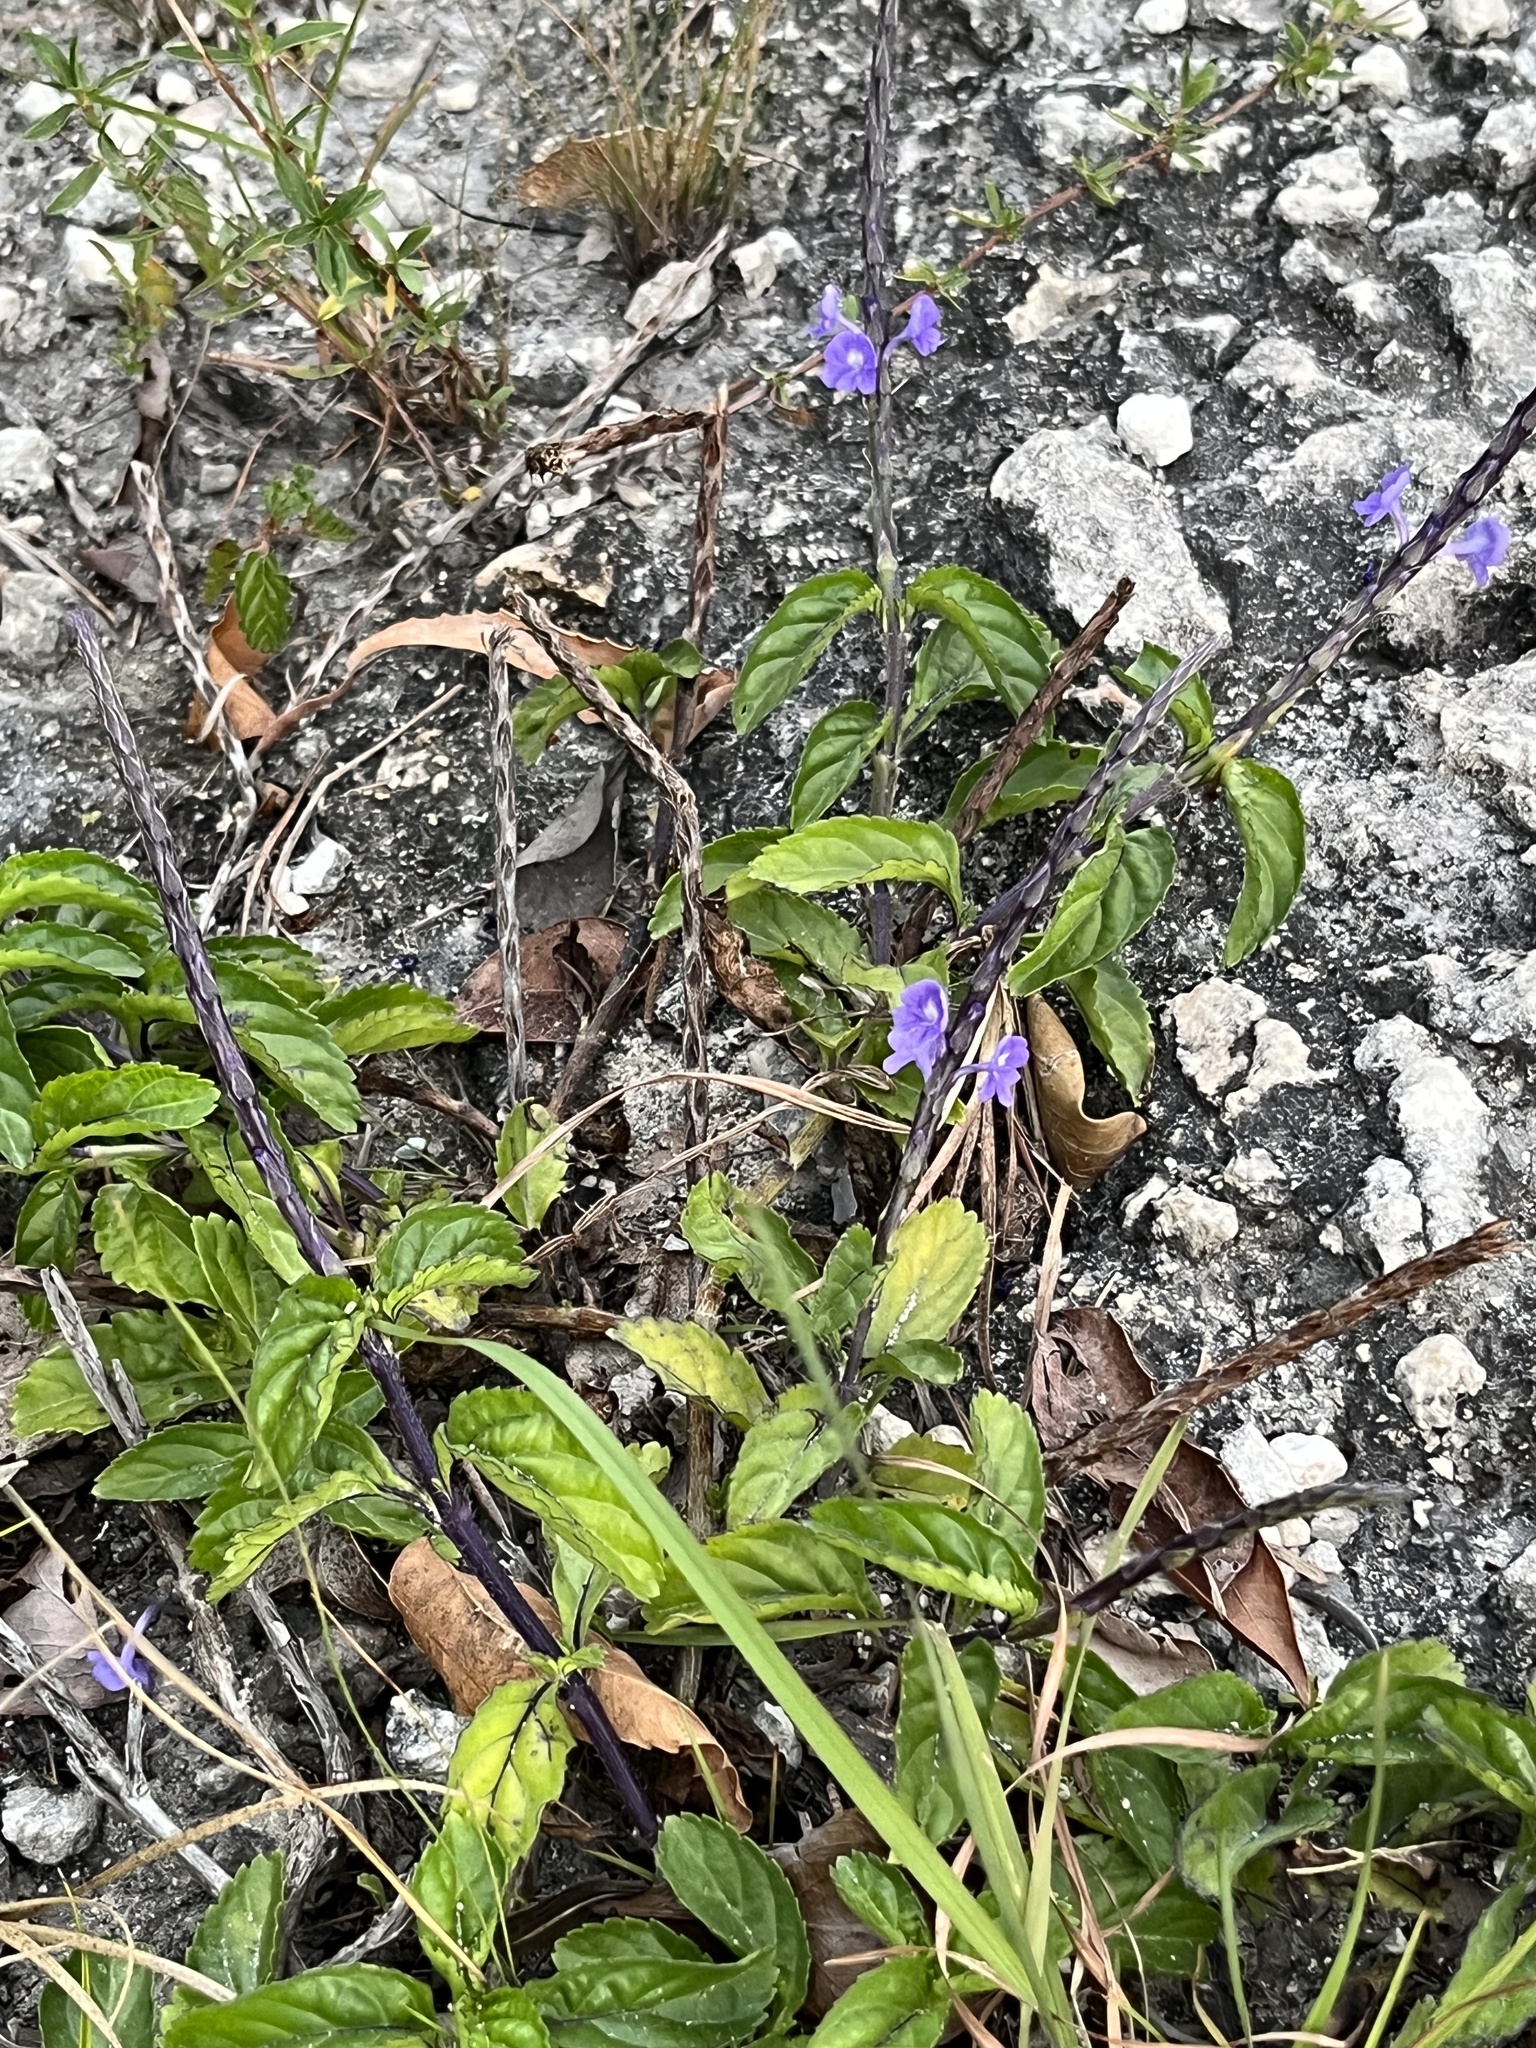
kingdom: Plantae
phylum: Tracheophyta
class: Magnoliopsida
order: Lamiales
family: Verbenaceae
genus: Stachytarpheta
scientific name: Stachytarpheta jamaicensis
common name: Light-blue snakeweed
